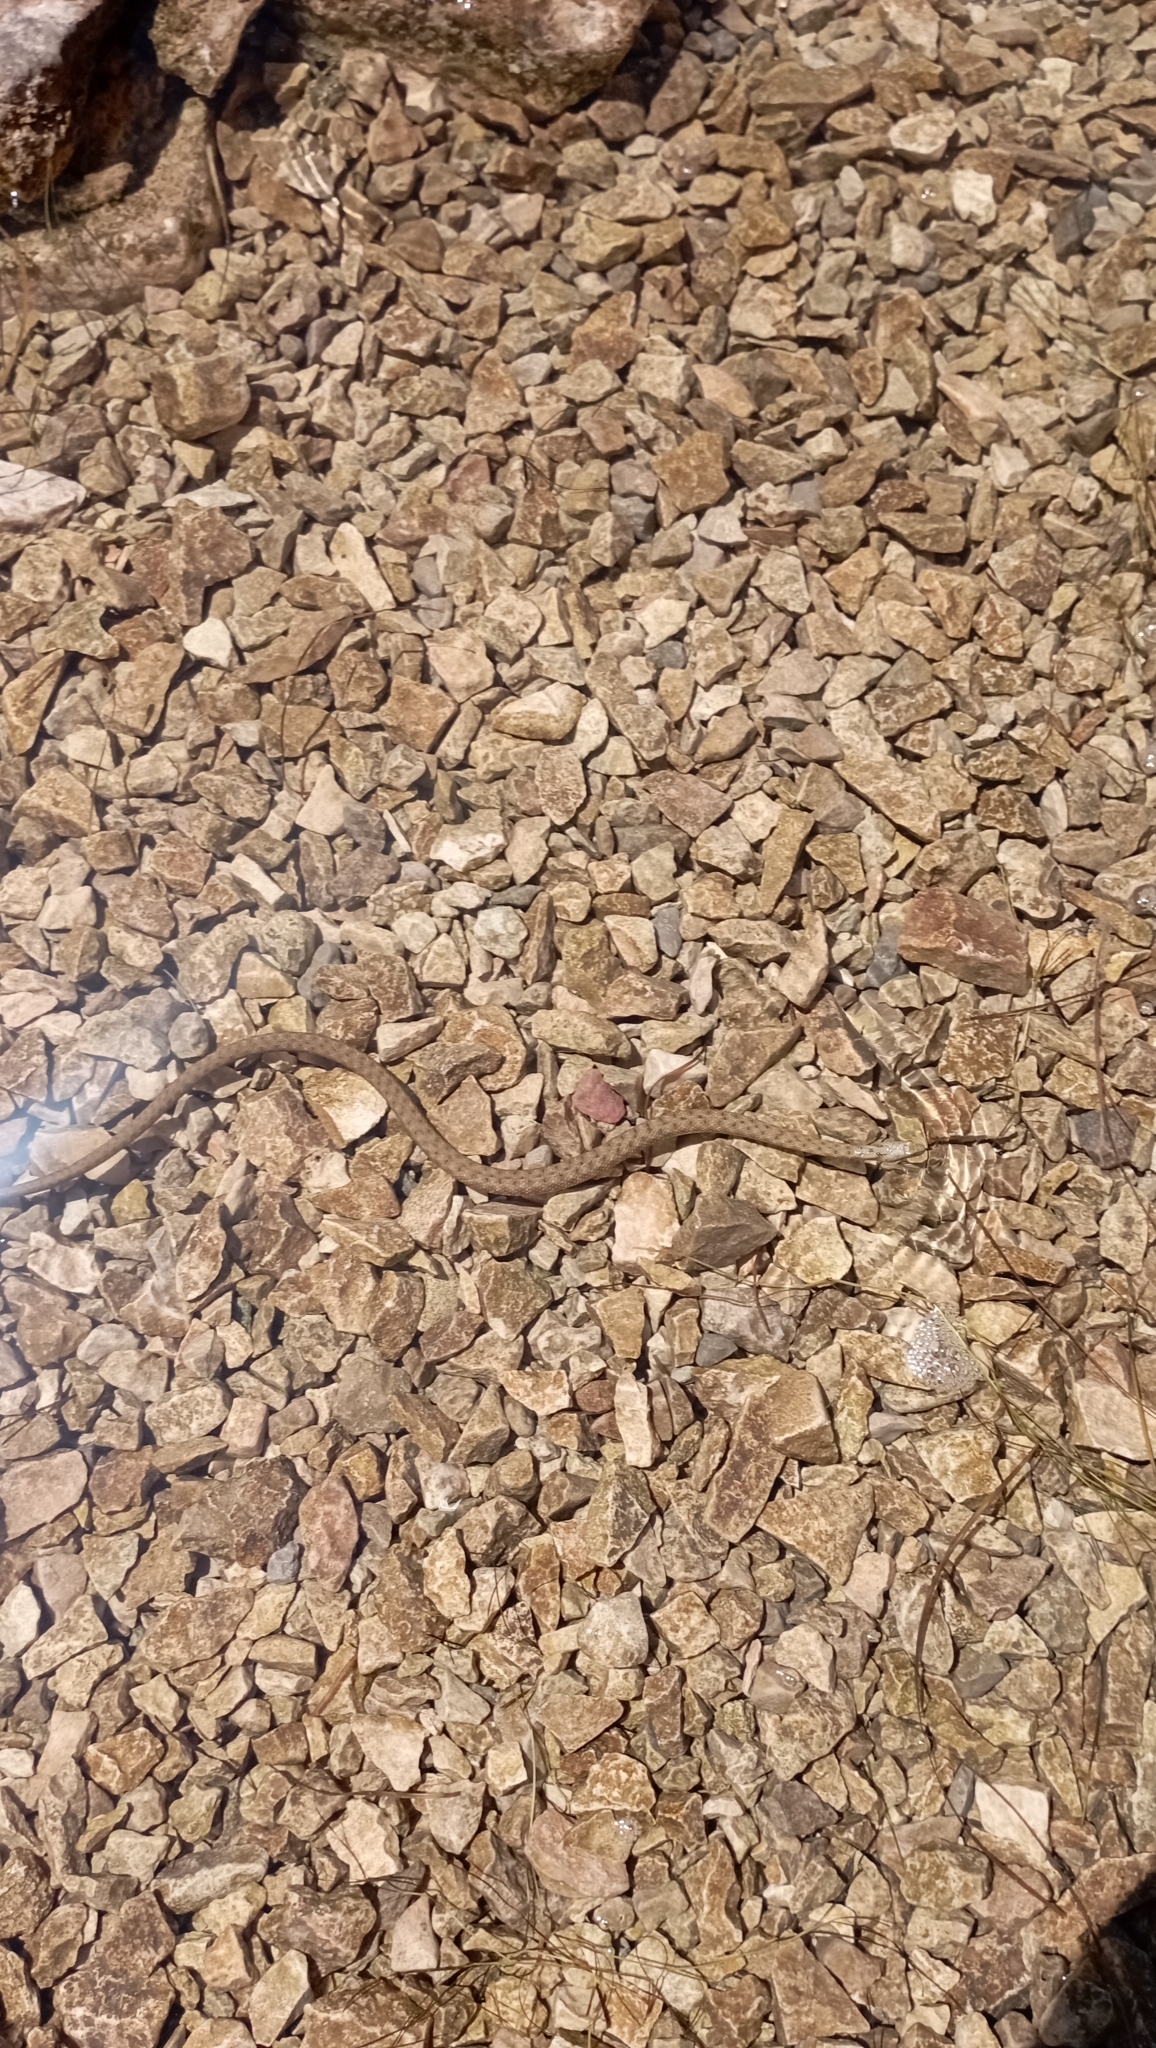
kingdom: Animalia
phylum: Chordata
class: Squamata
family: Colubridae
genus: Natrix
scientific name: Natrix tessellata
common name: Dice snake
